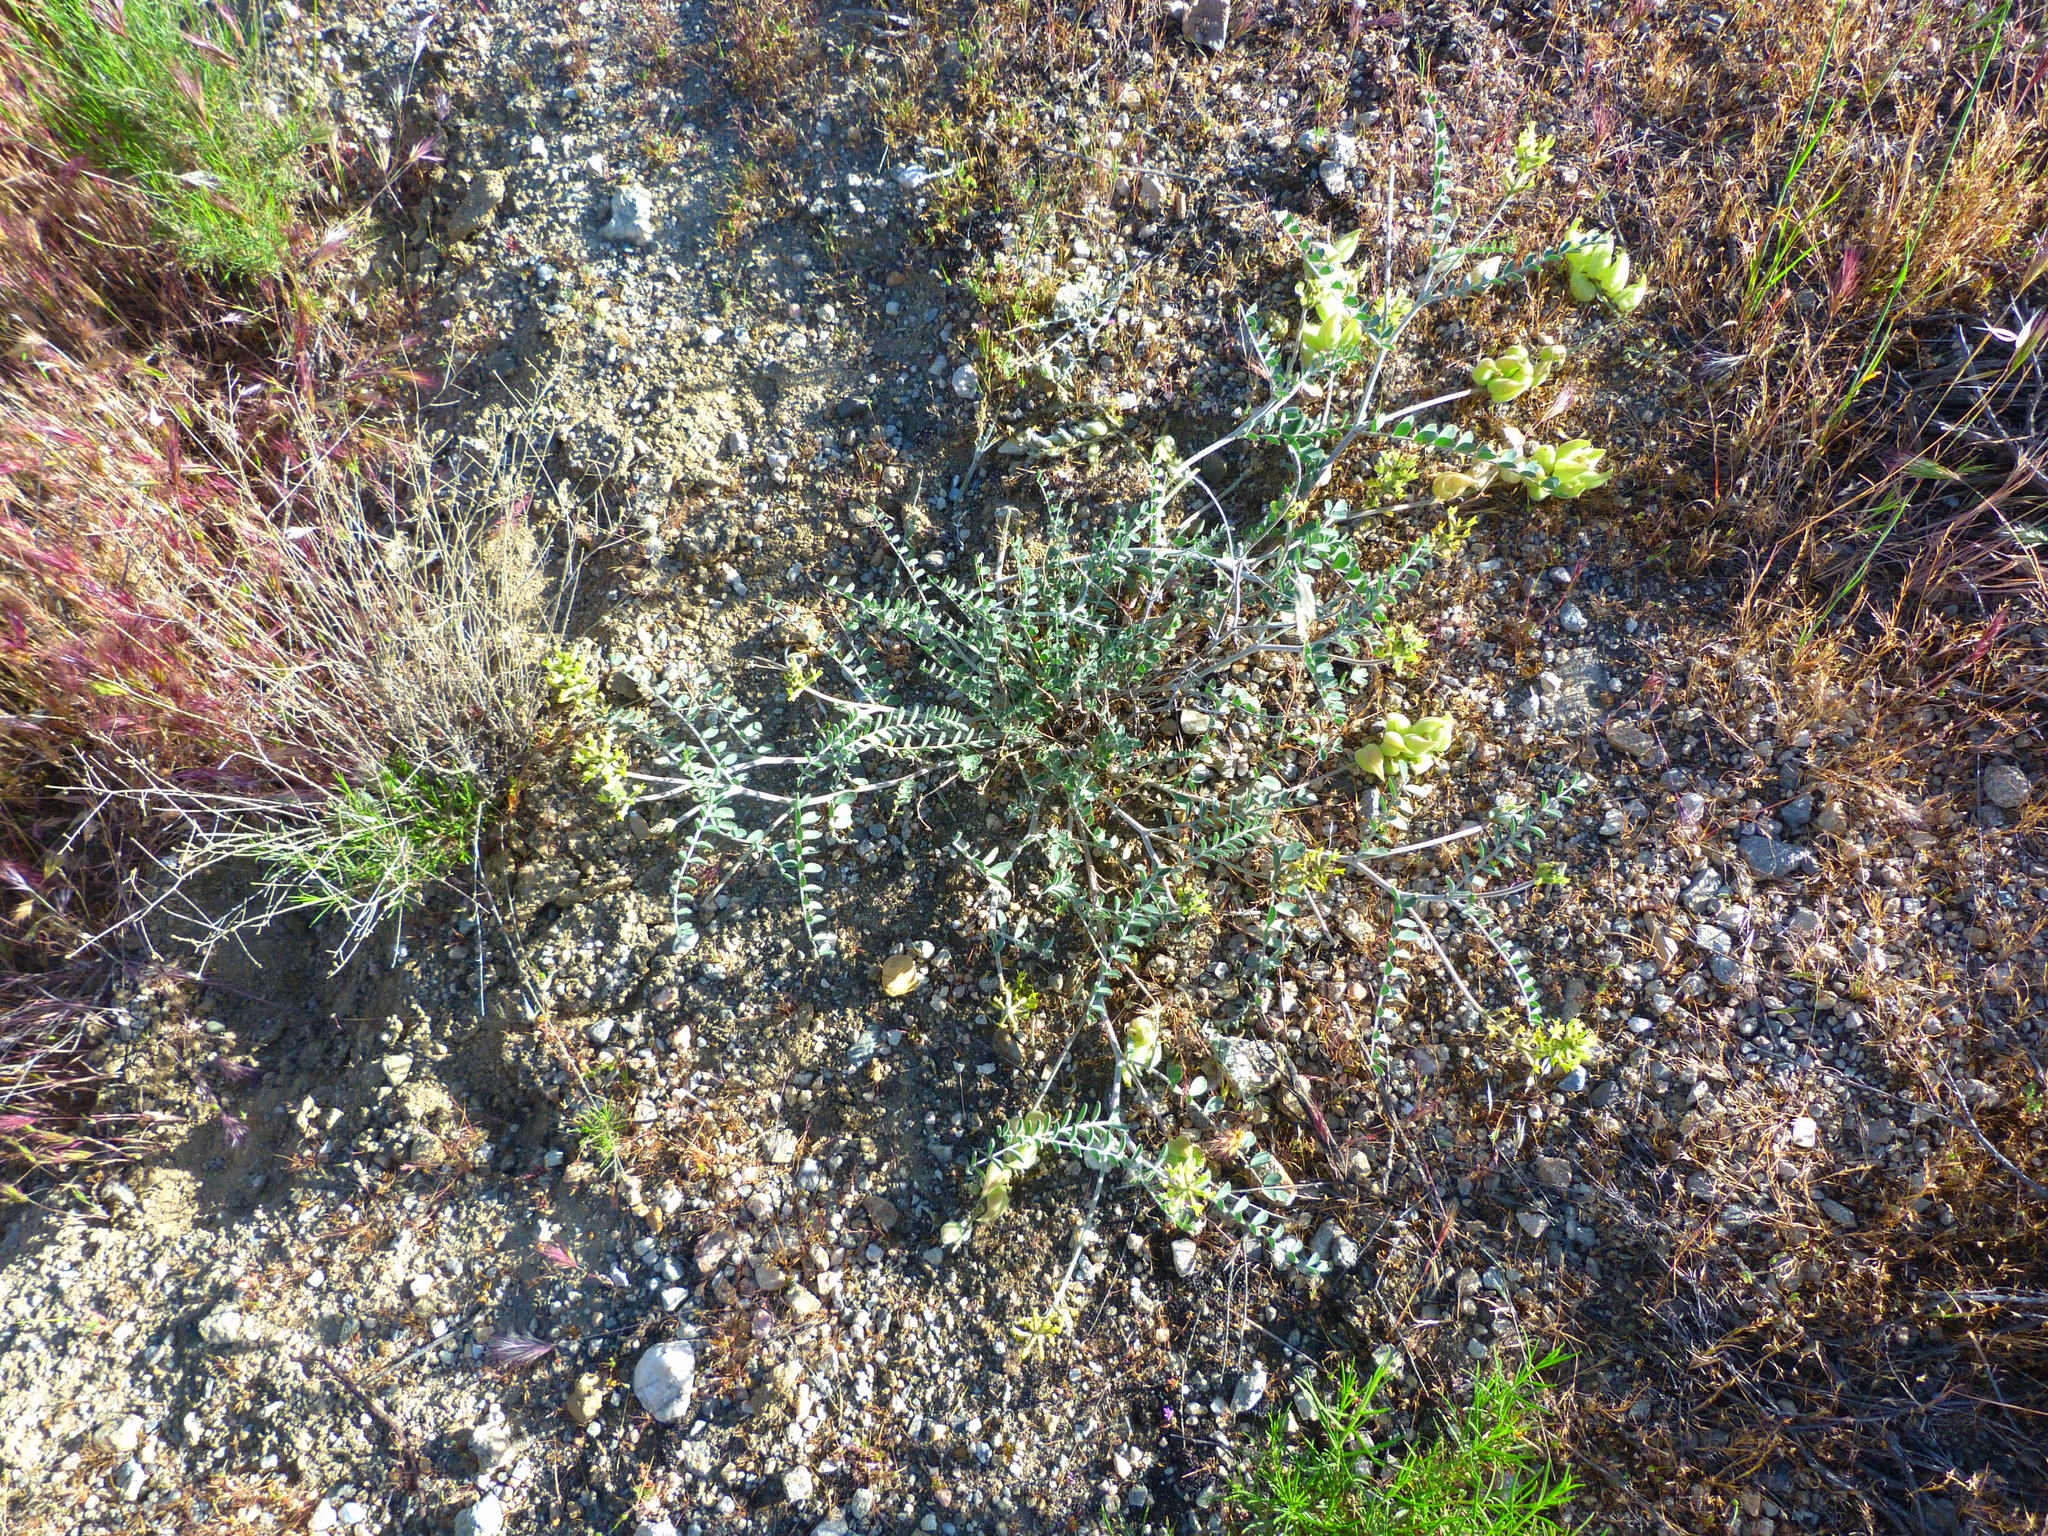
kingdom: Plantae
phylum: Tracheophyta
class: Magnoliopsida
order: Fabales
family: Fabaceae
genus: Astragalus
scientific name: Astragalus lentiginosus
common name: Freckled milkvetch
